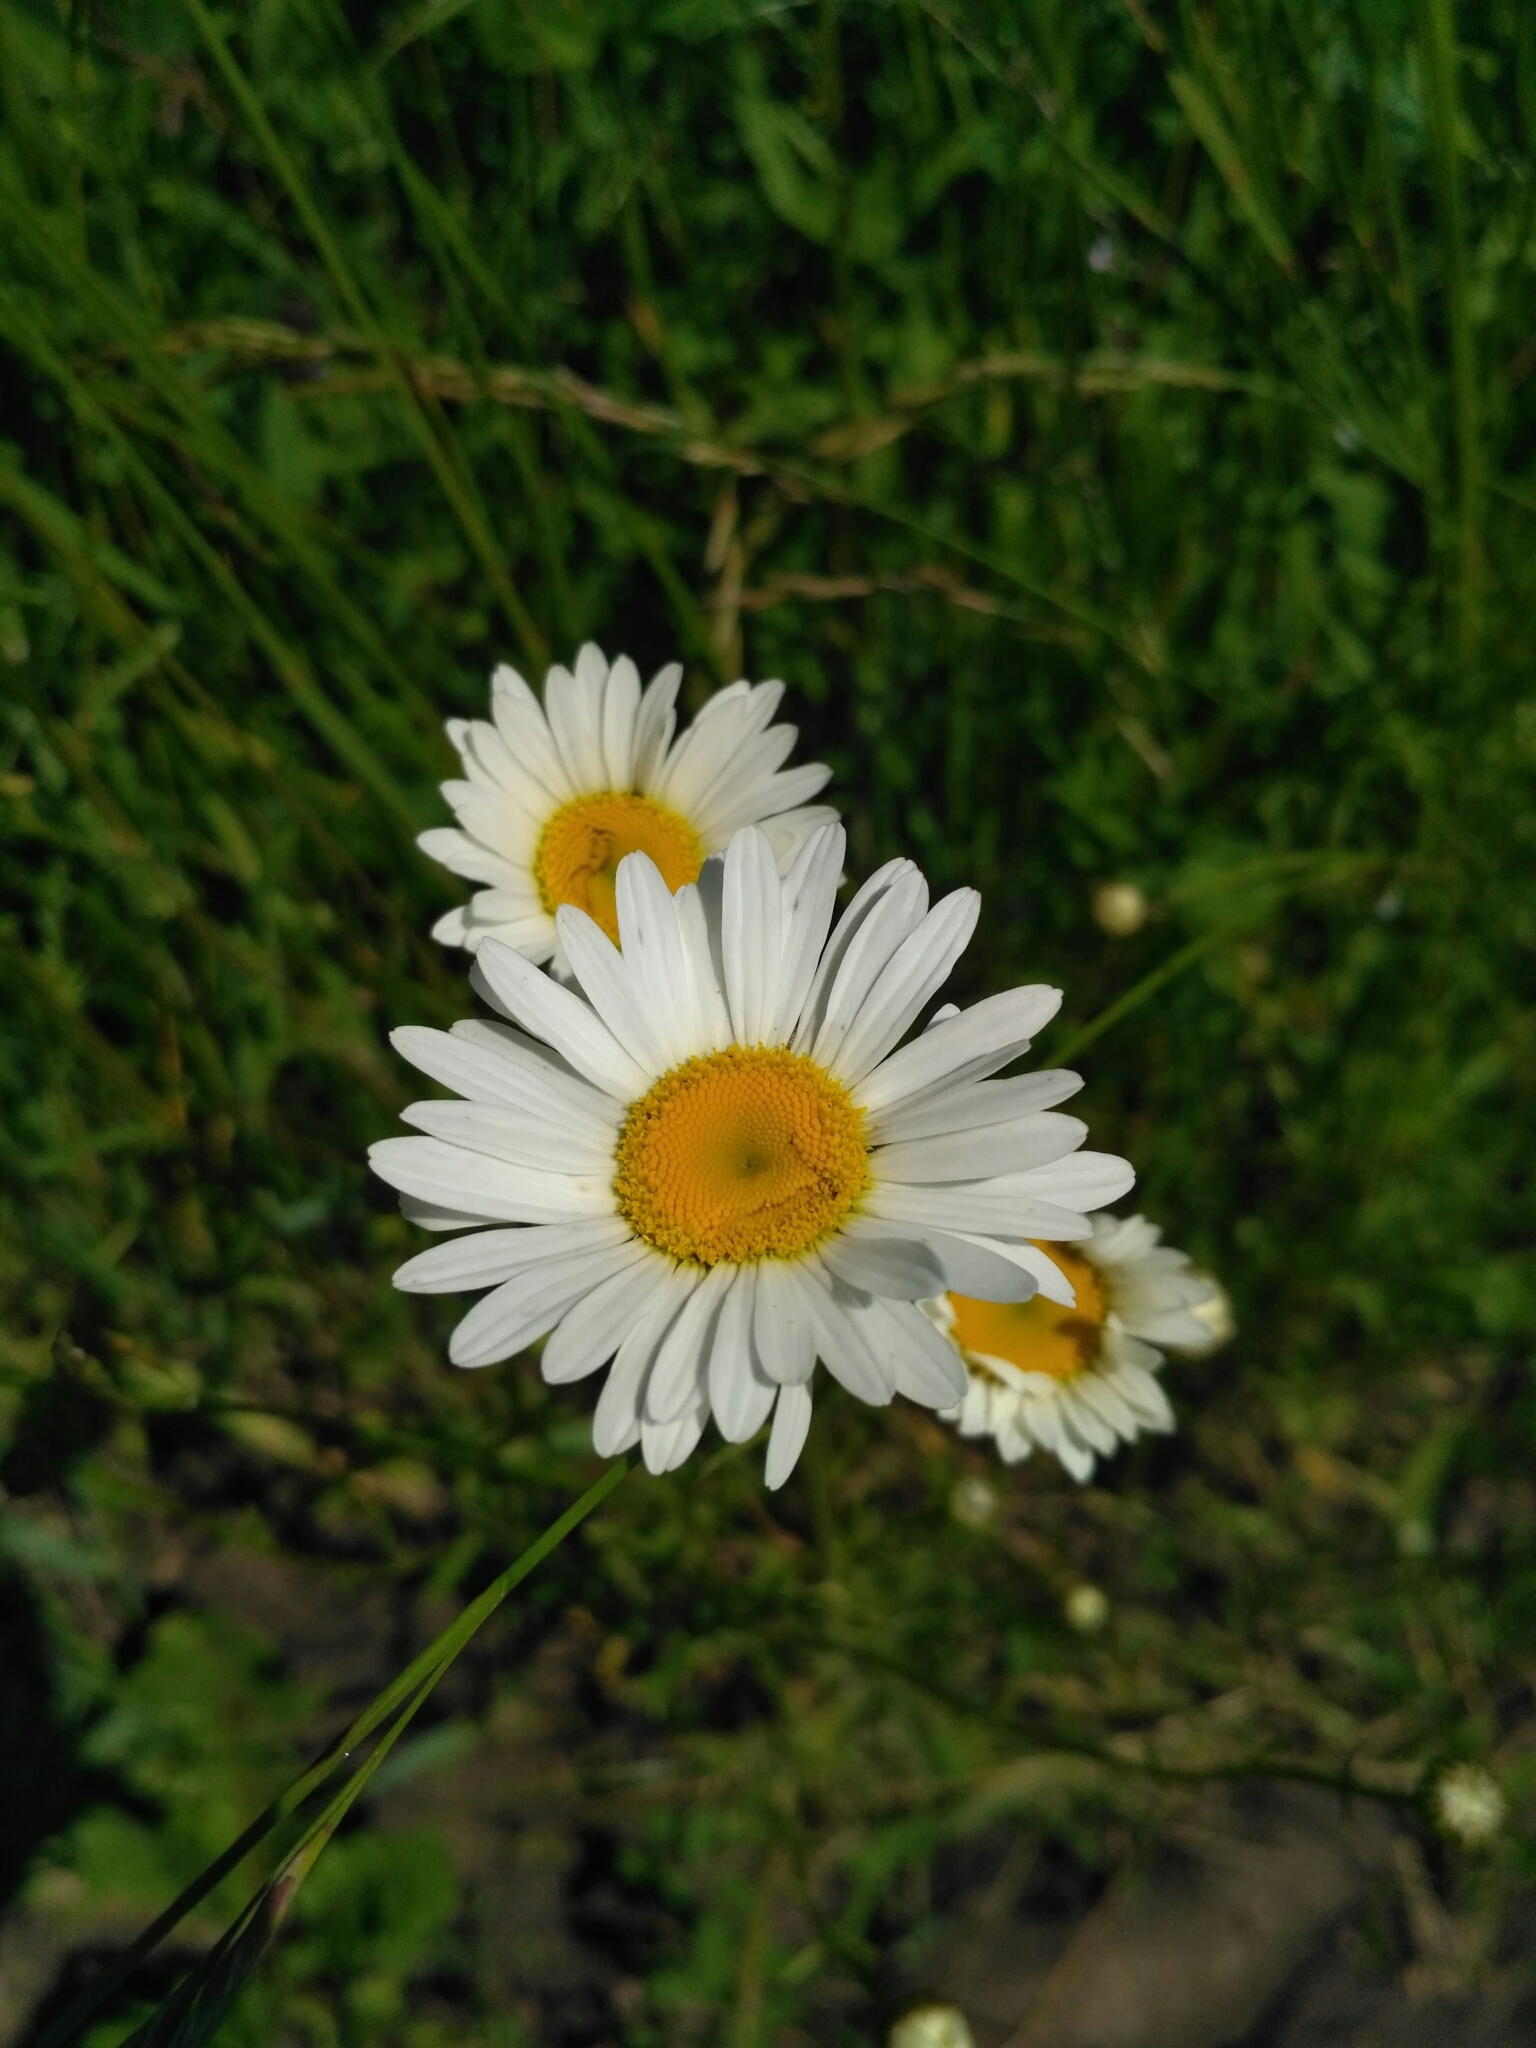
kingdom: Plantae
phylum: Tracheophyta
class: Magnoliopsida
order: Asterales
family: Asteraceae
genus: Leucanthemum
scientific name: Leucanthemum vulgare
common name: Oxeye daisy
